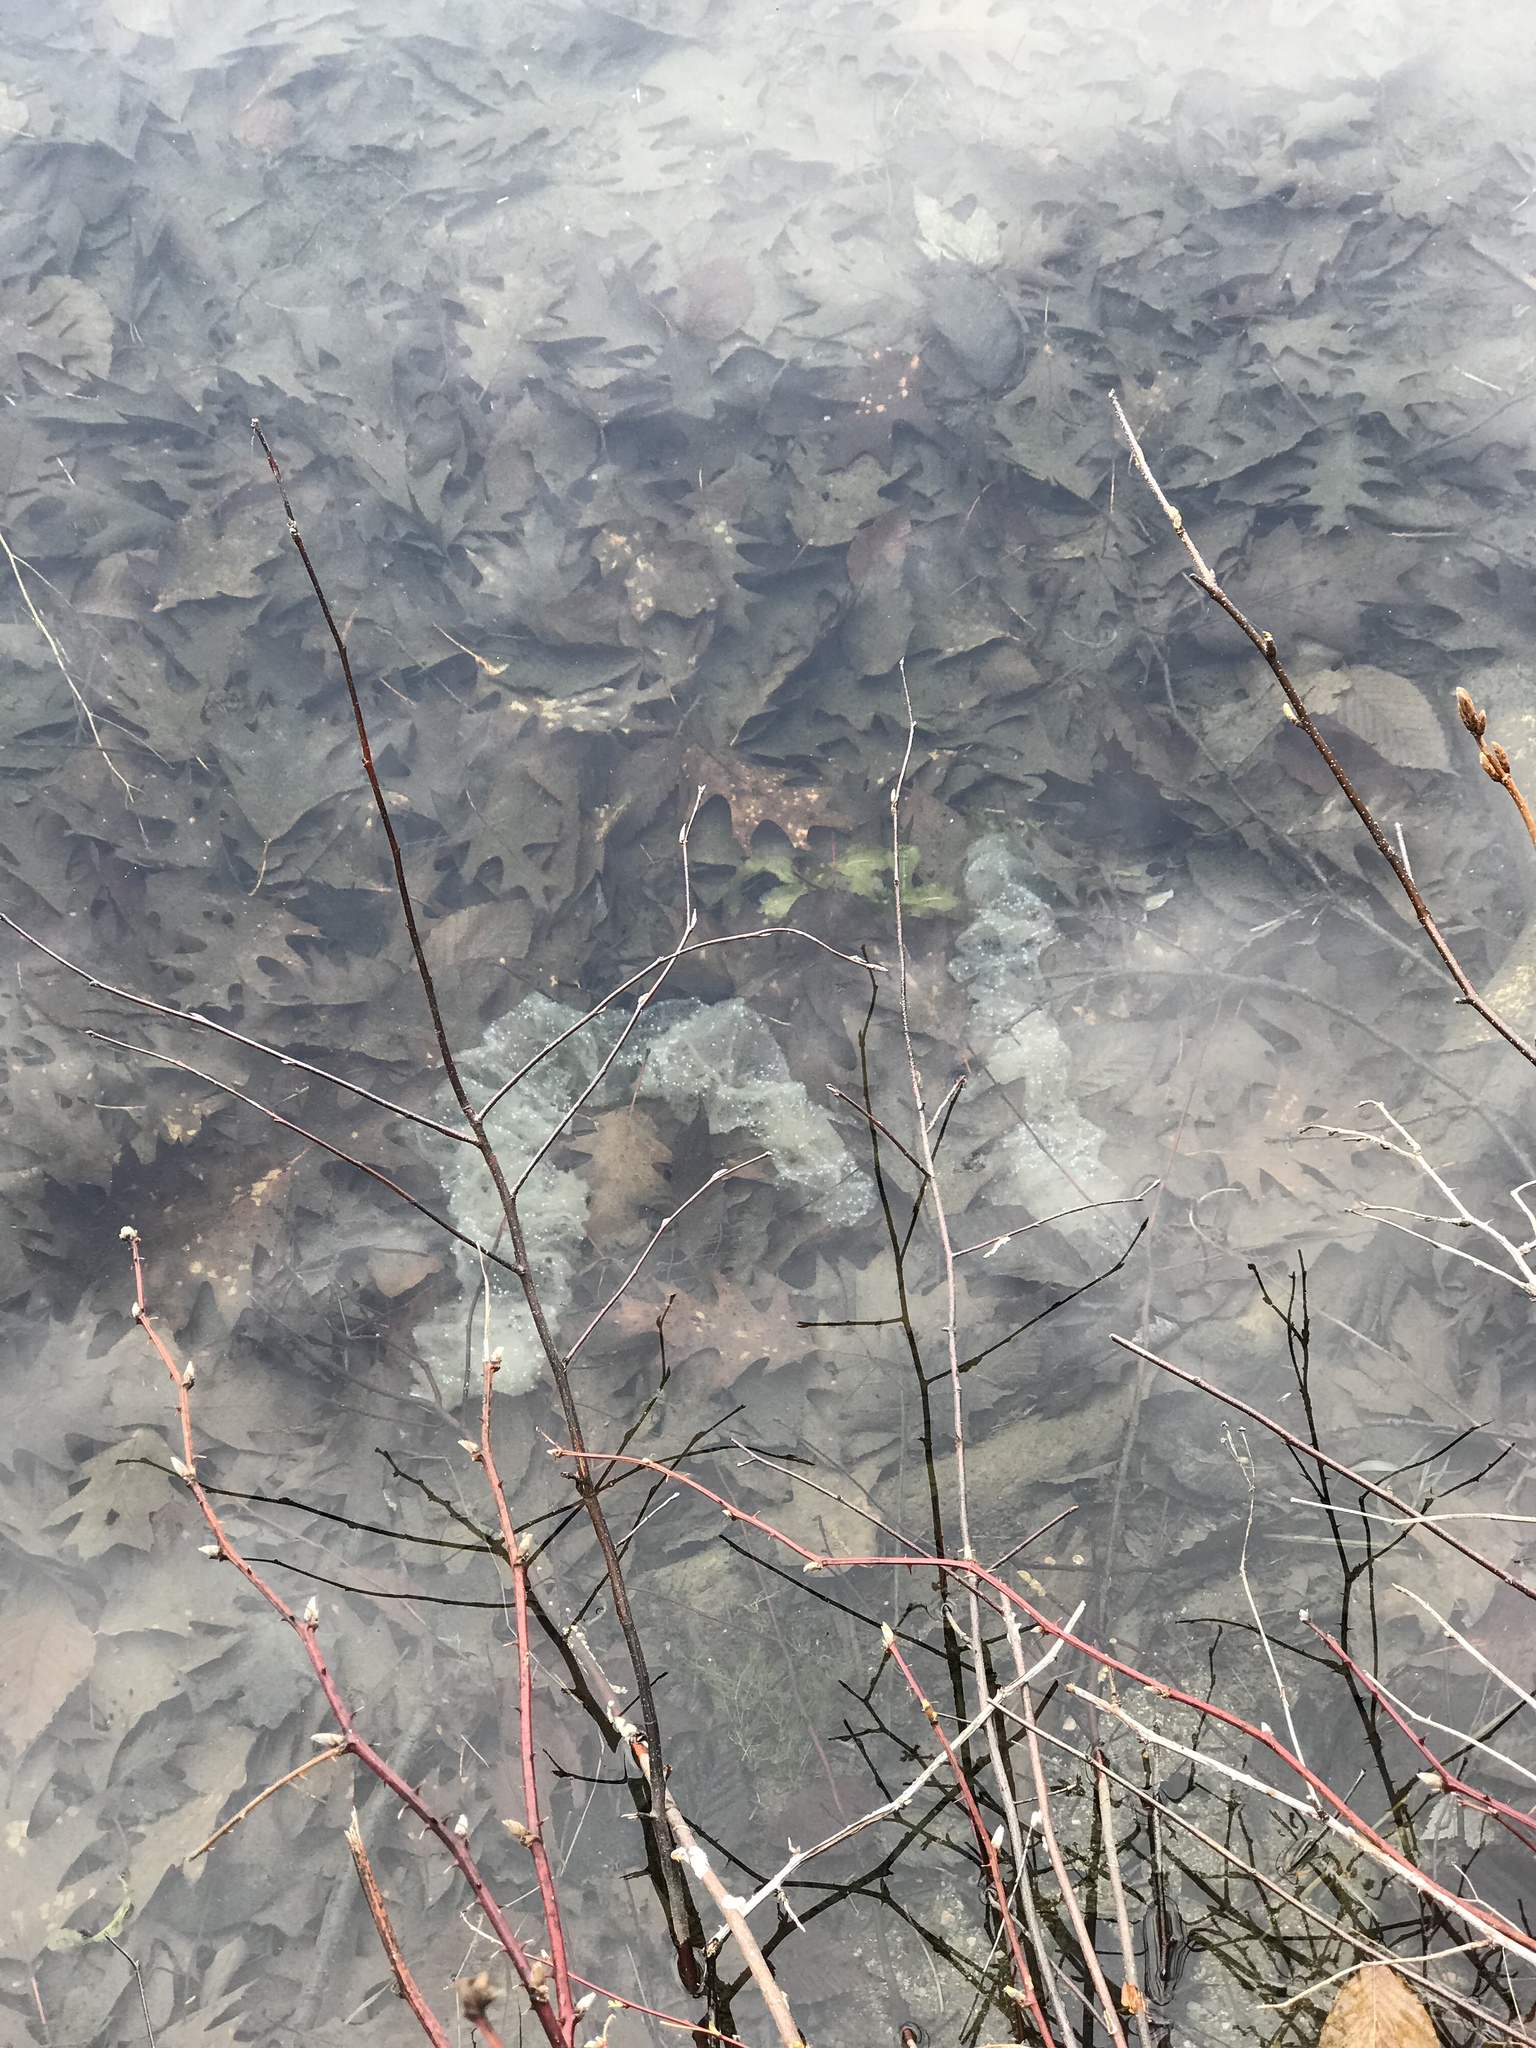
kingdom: Animalia
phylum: Chordata
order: Perciformes
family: Percidae
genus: Perca
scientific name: Perca flavescens
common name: Yellow perch
